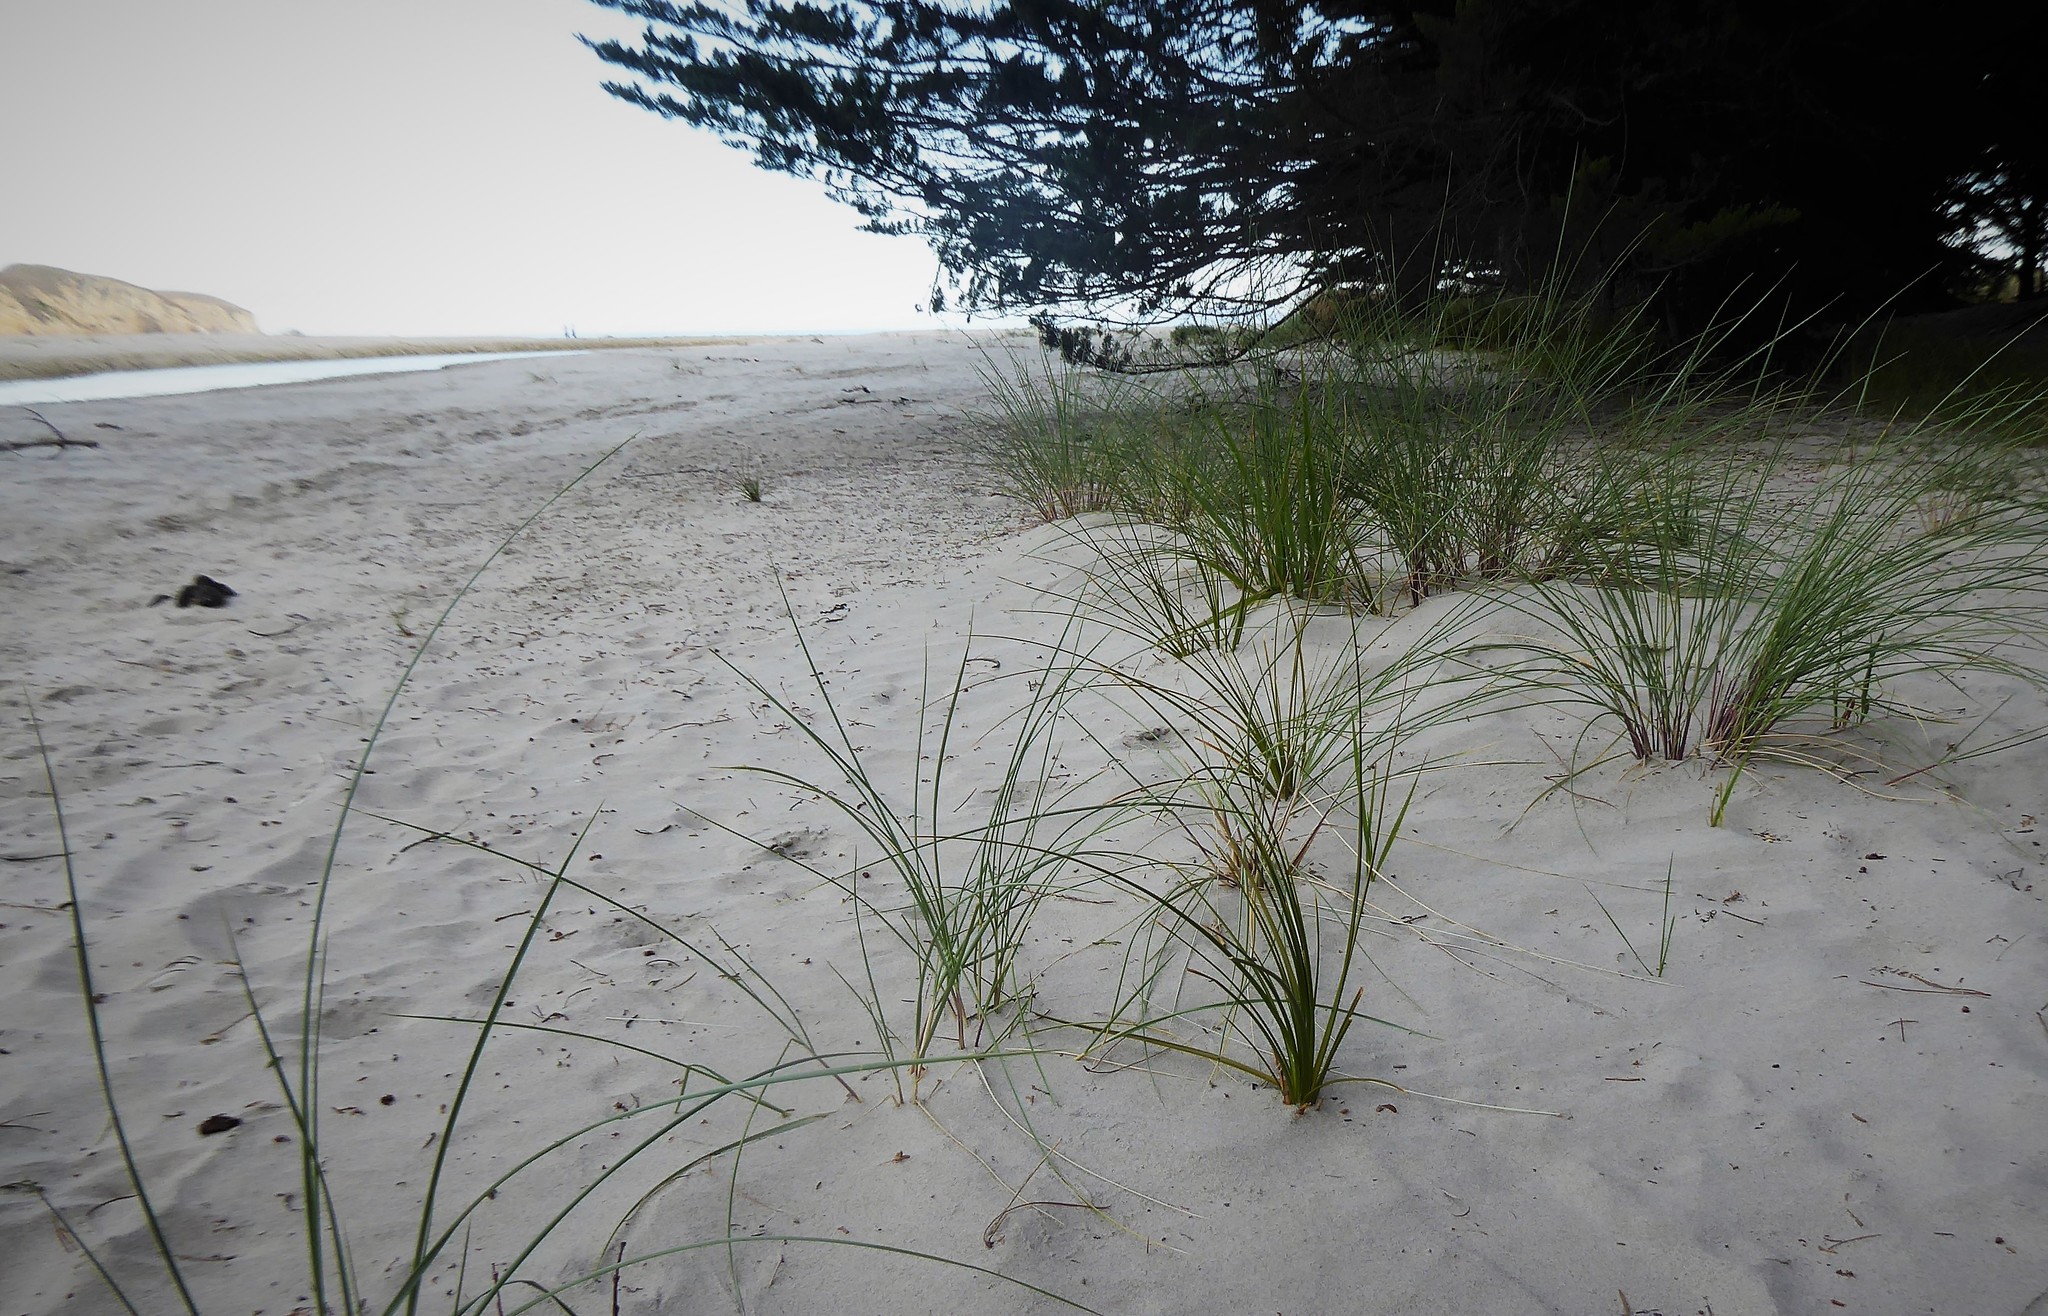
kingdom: Plantae
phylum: Tracheophyta
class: Liliopsida
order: Poales
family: Cyperaceae
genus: Ficinia
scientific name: Ficinia spiralis
